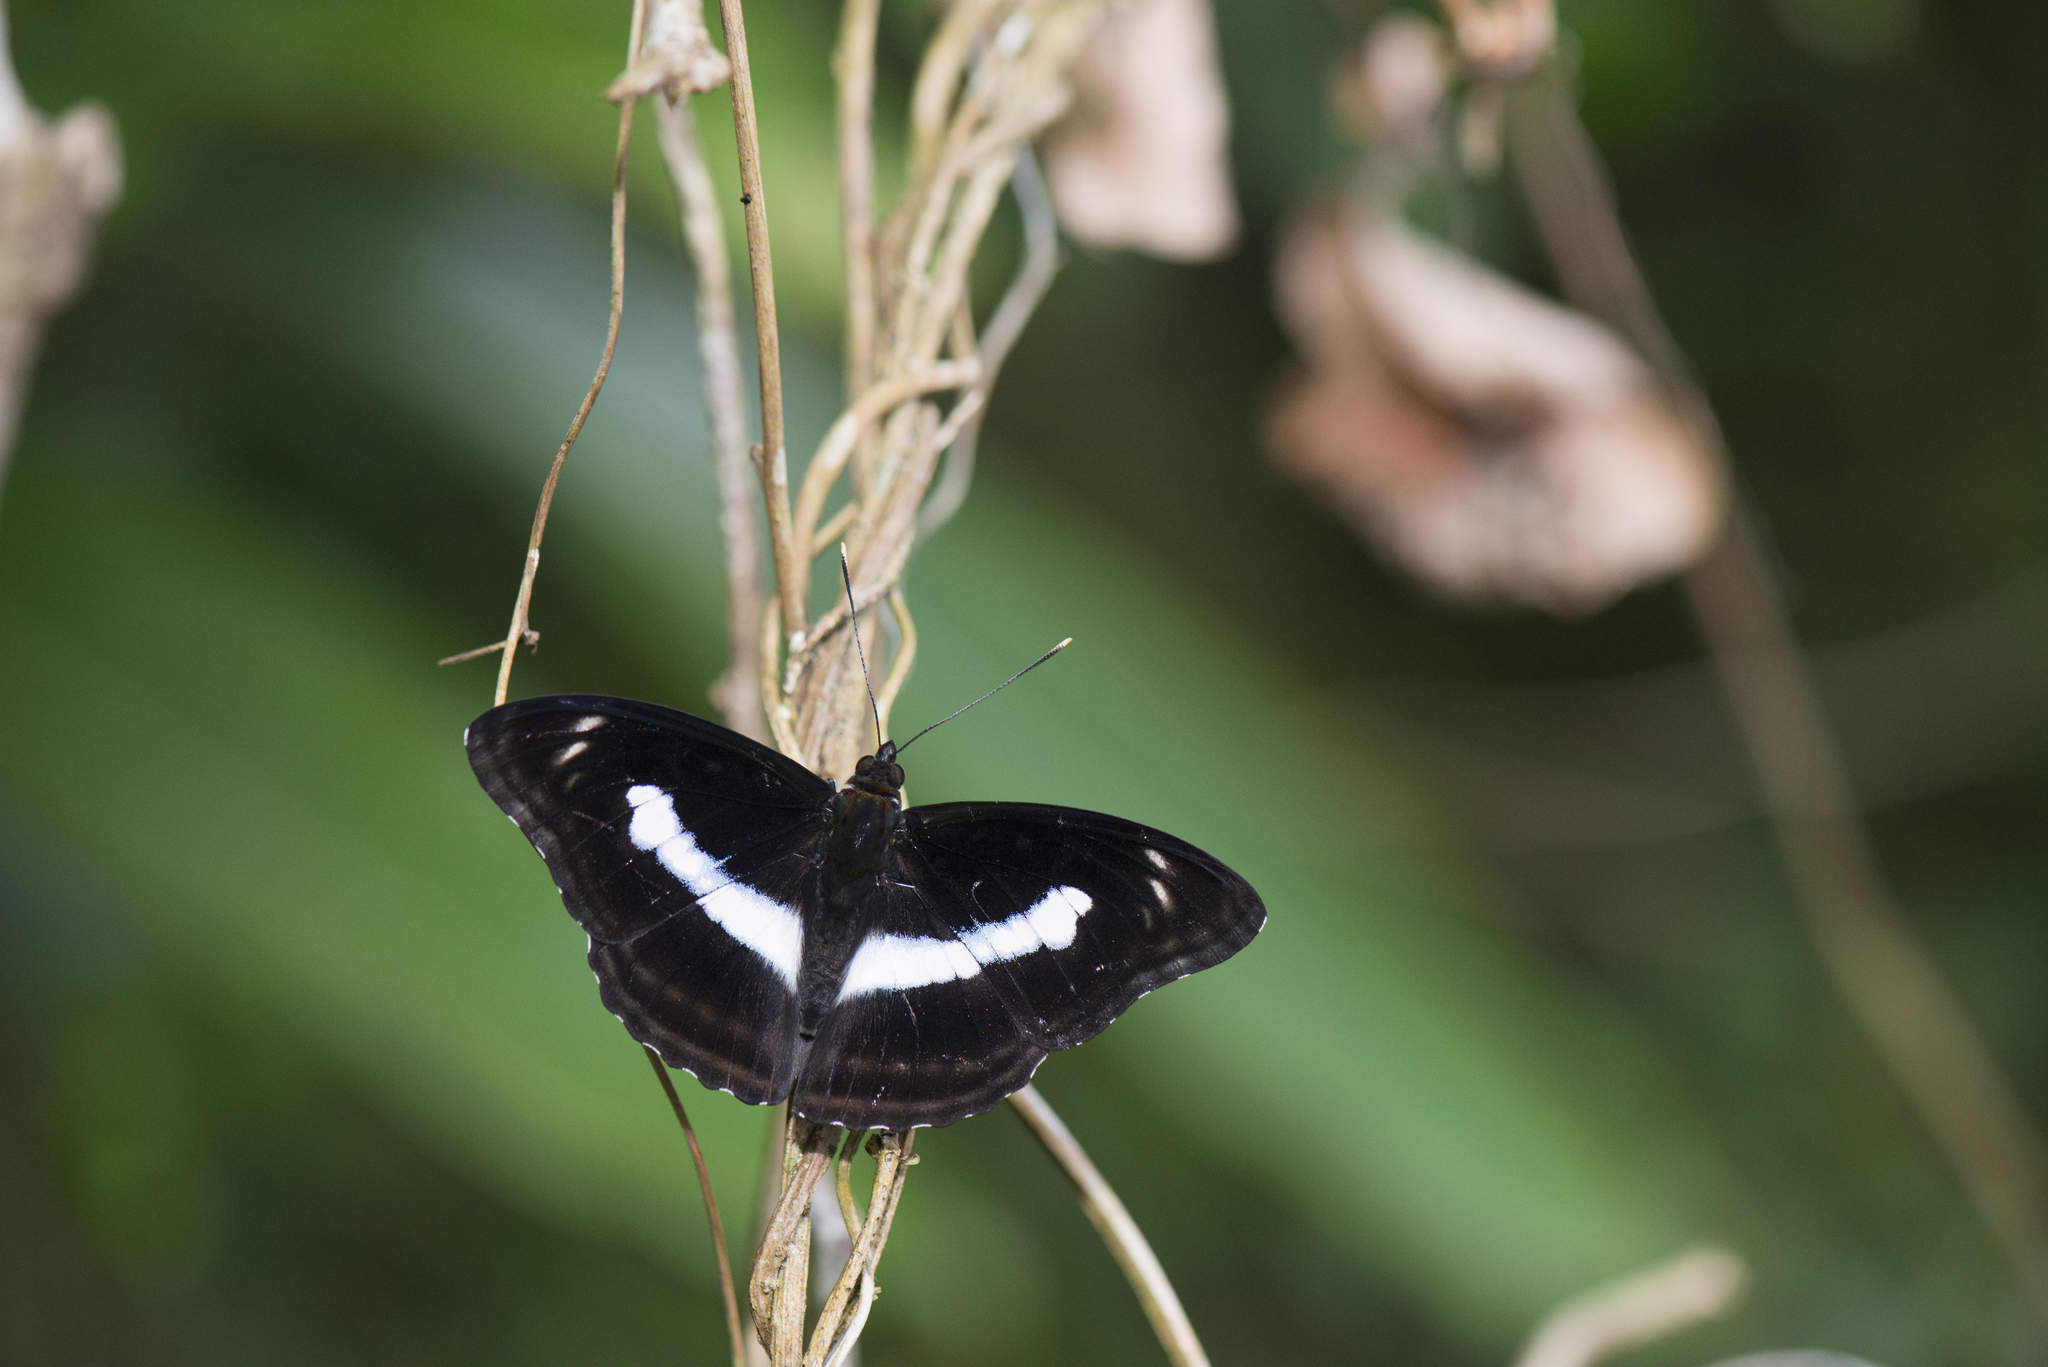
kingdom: Animalia
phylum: Arthropoda
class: Insecta
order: Lepidoptera
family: Nymphalidae
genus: Parathyma
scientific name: Parathyma selenophora
